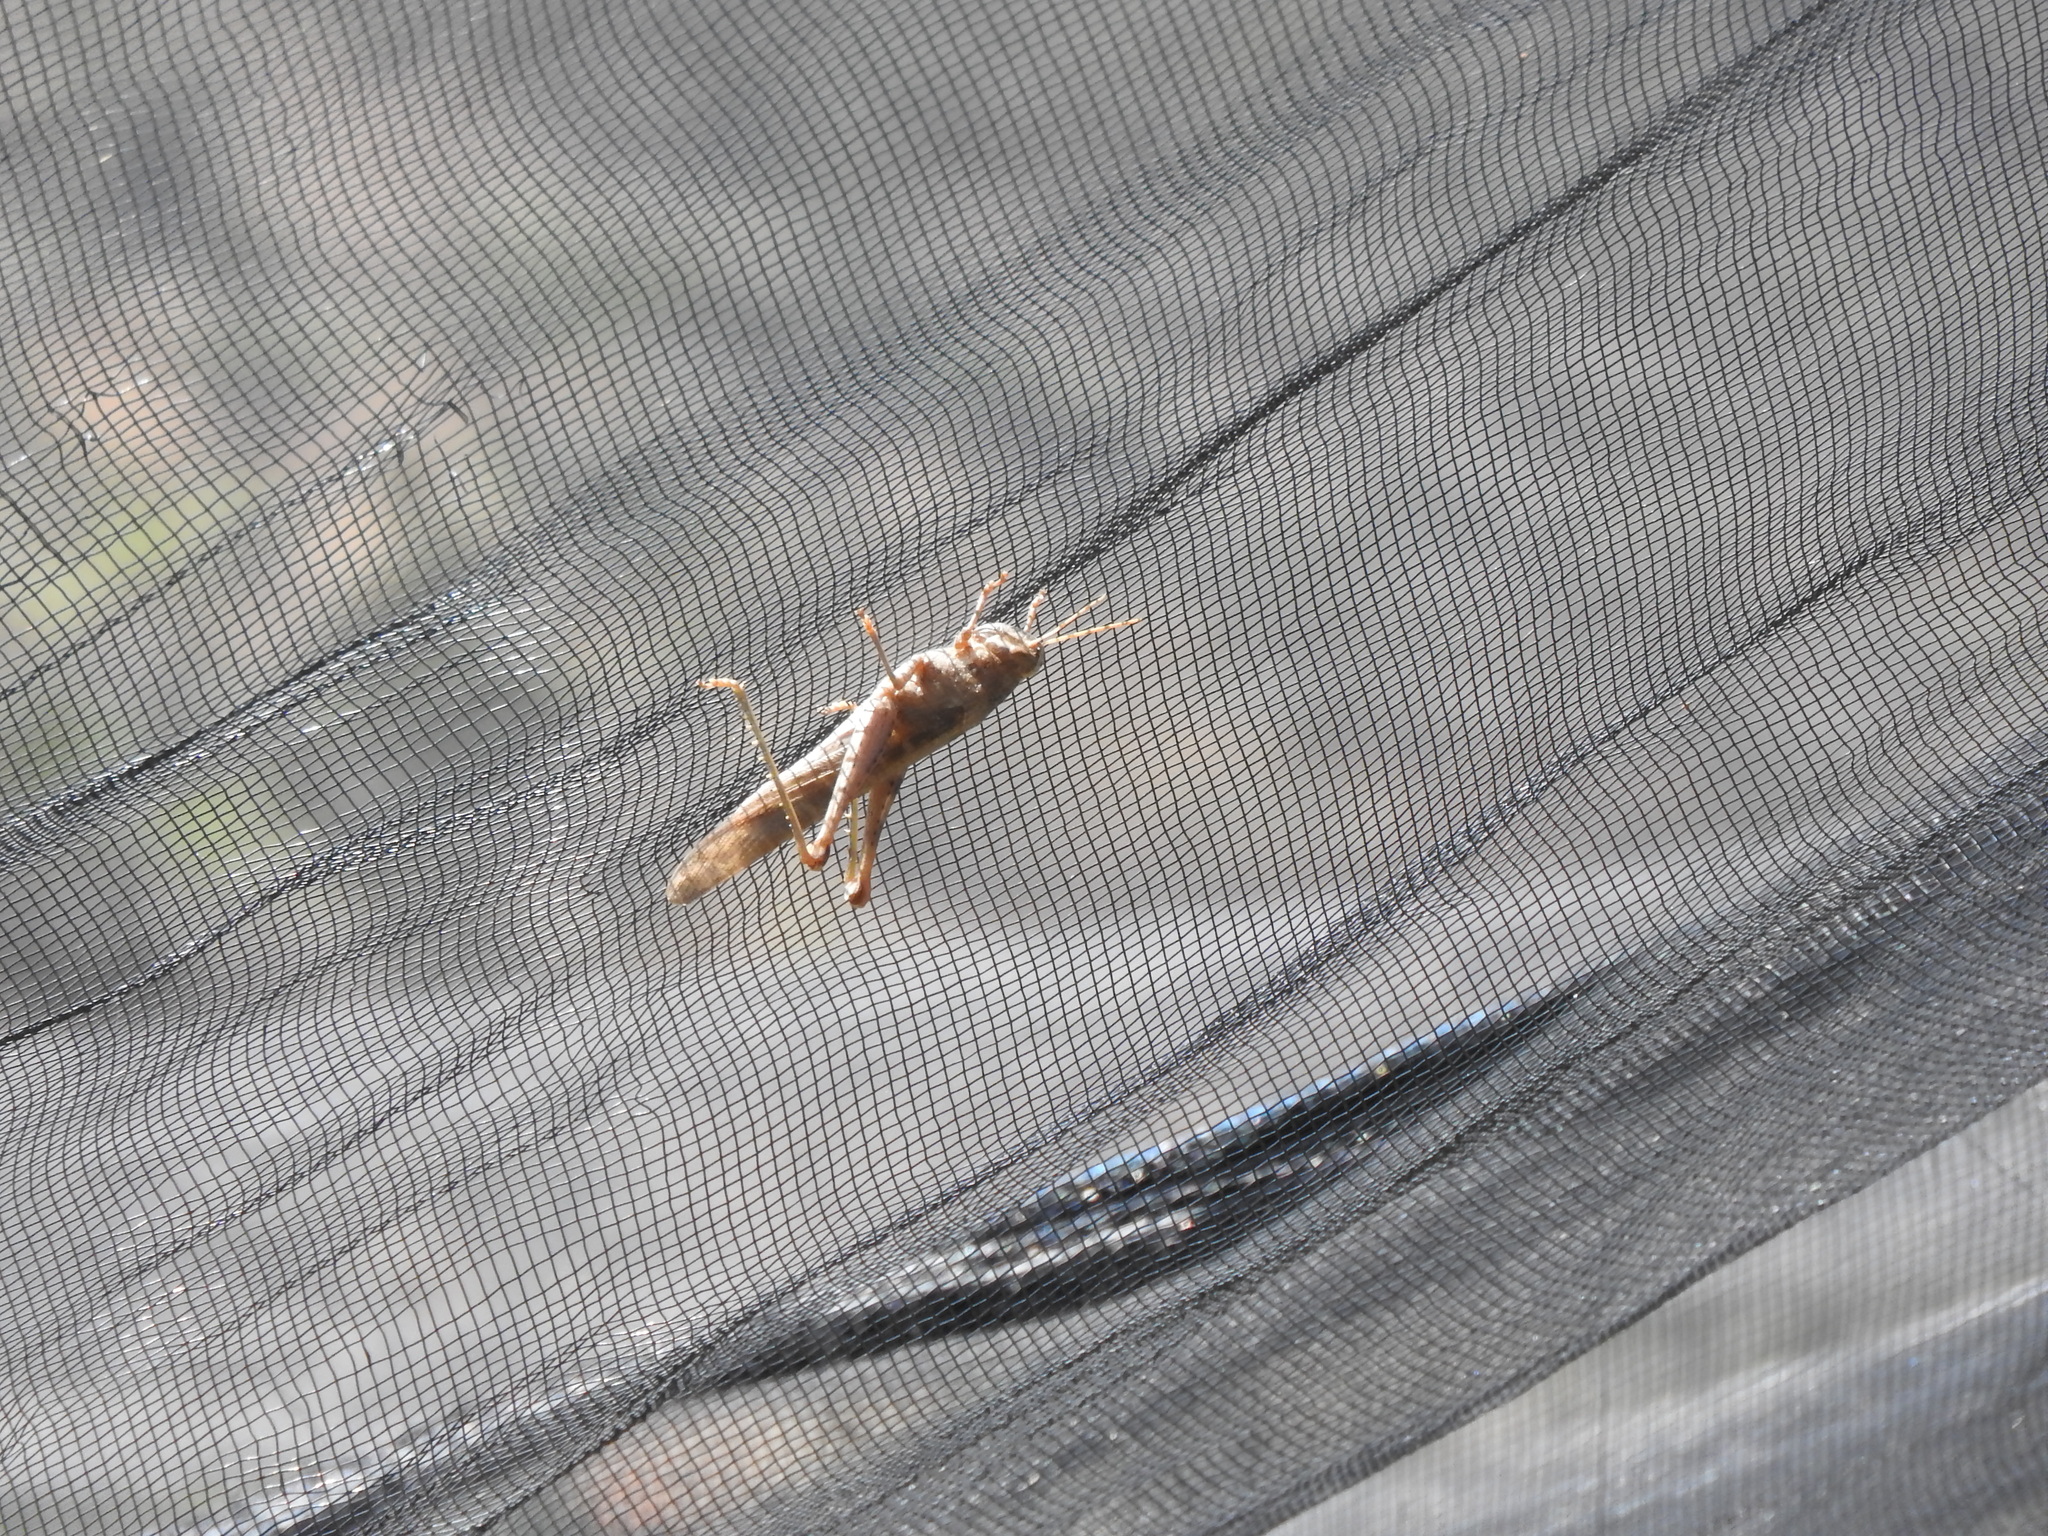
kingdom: Animalia
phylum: Arthropoda
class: Insecta
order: Orthoptera
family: Acrididae
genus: Schistocerca
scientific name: Schistocerca nitens
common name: Vagrant grasshopper
